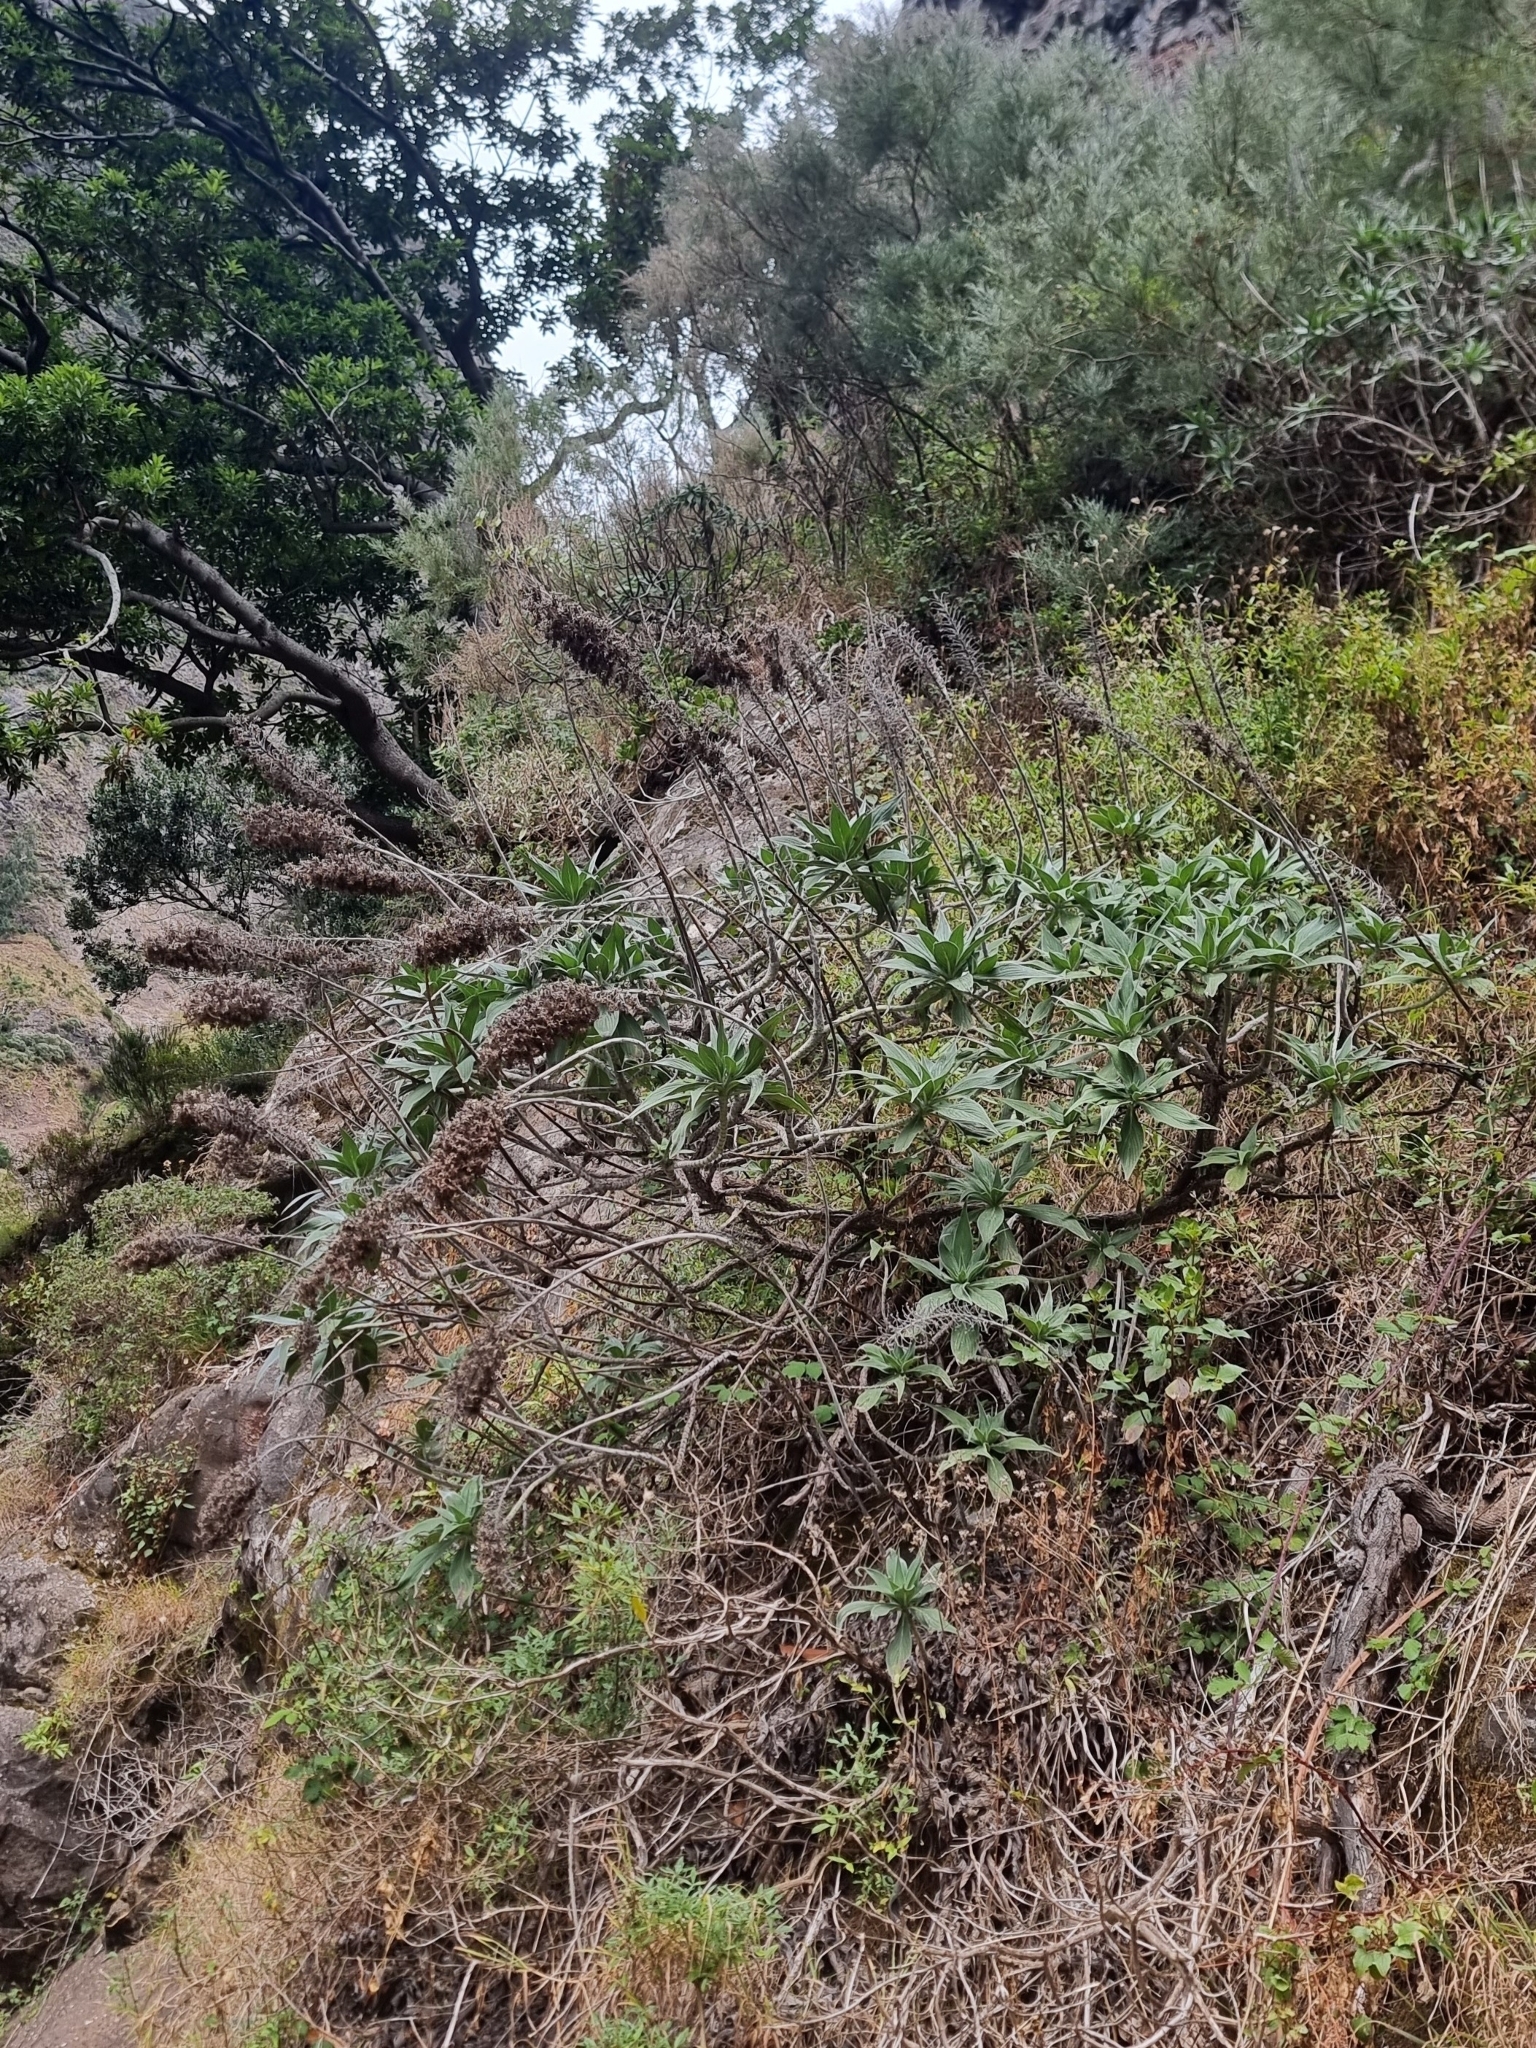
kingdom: Plantae
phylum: Tracheophyta
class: Magnoliopsida
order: Boraginales
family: Boraginaceae
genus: Echium
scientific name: Echium candicans
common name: Pride of madeira
